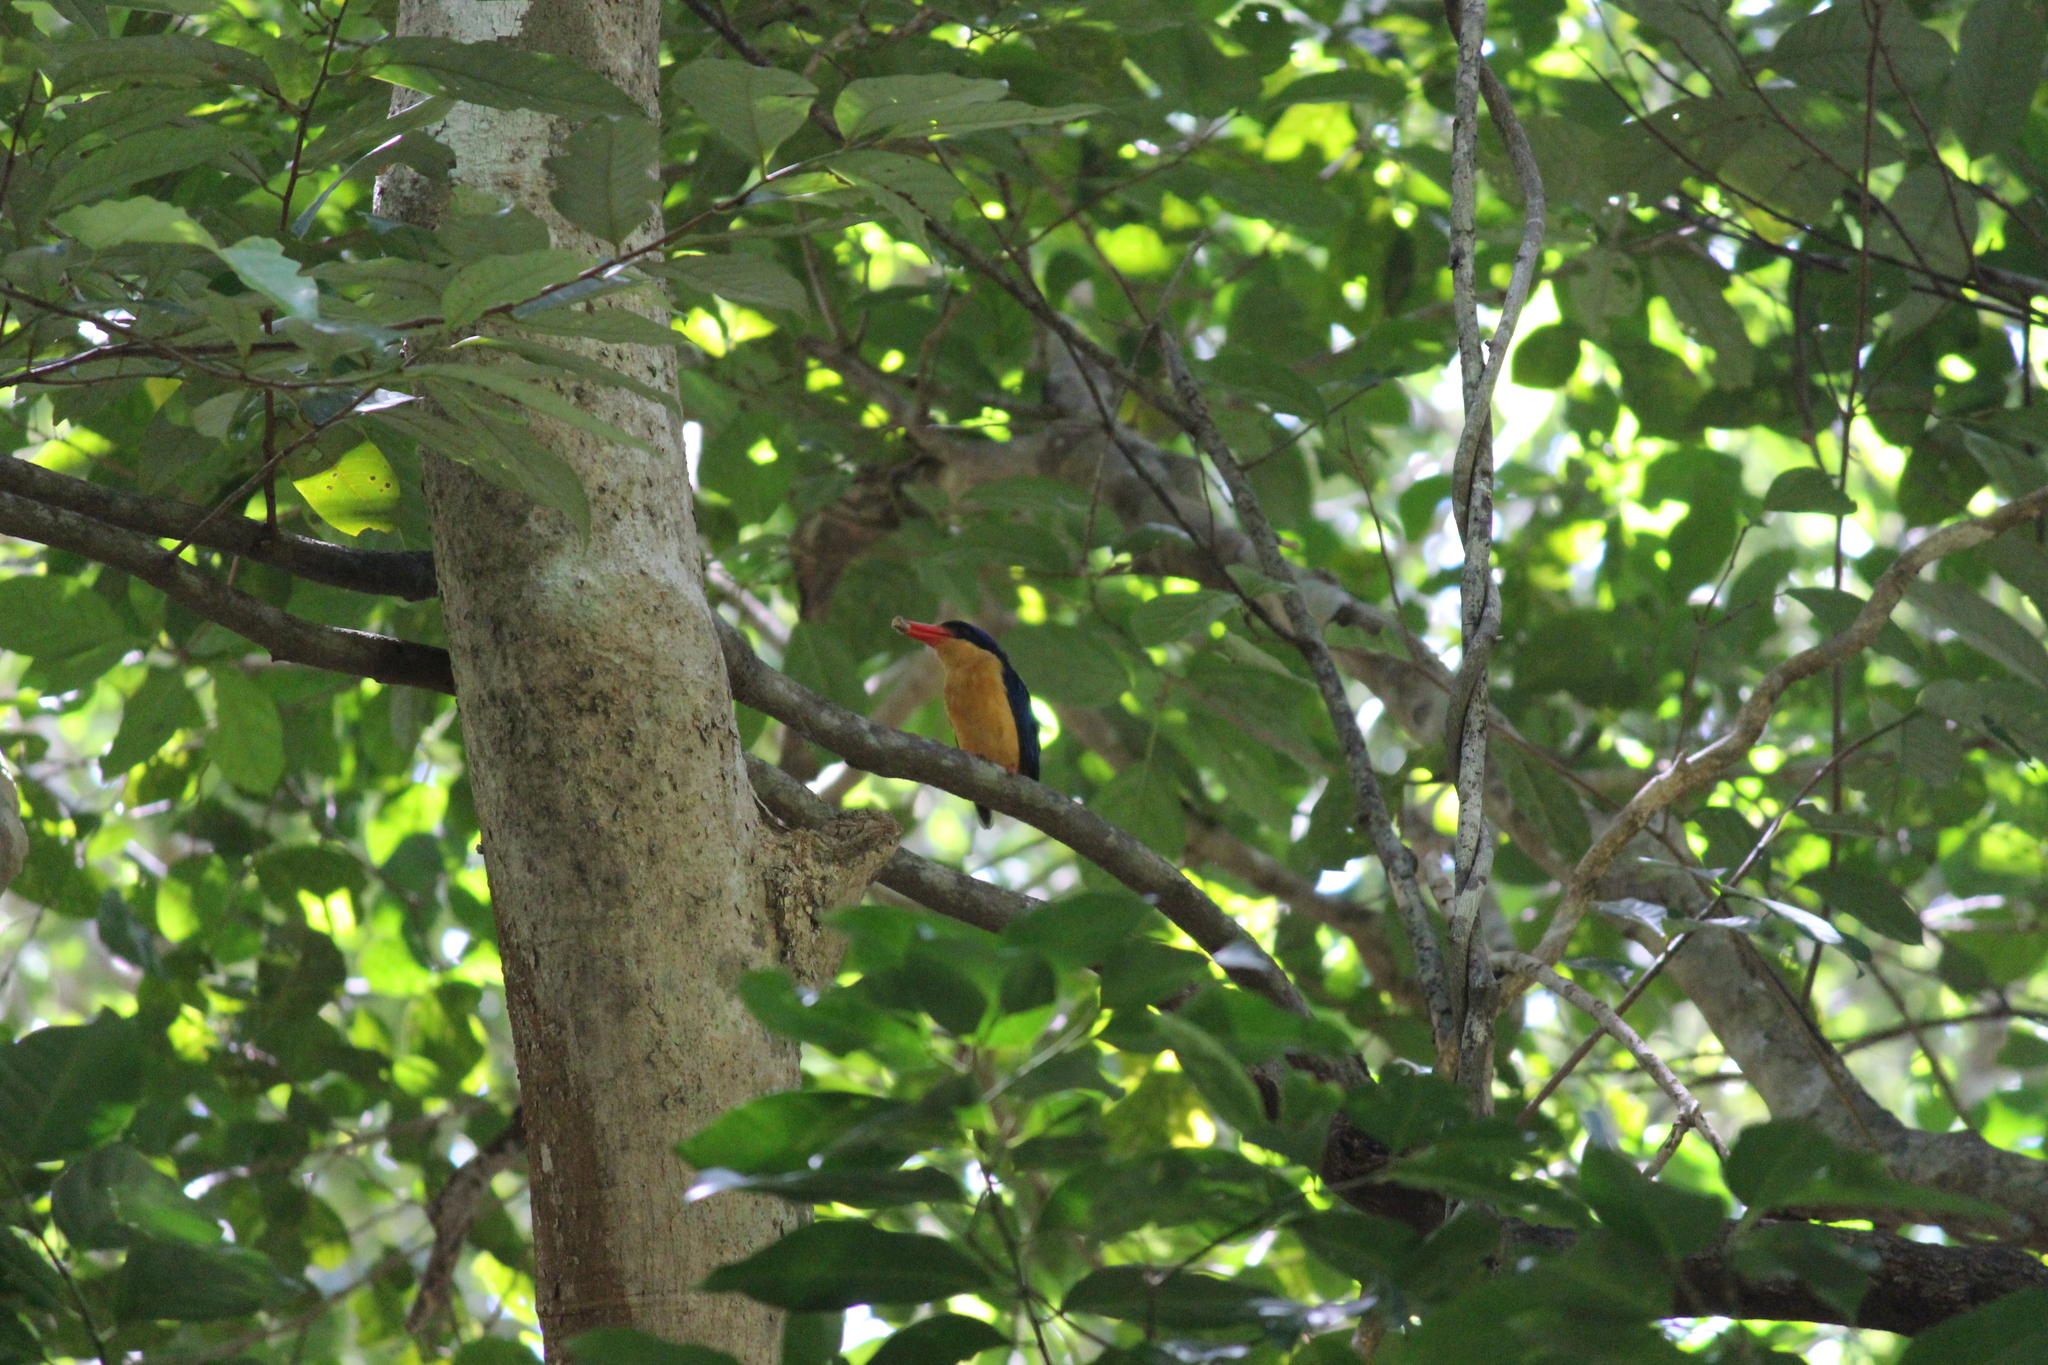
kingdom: Animalia
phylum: Chordata
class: Aves
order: Coraciiformes
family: Alcedinidae
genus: Tanysiptera
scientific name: Tanysiptera sylvia
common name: Buff-breasted paradise kingfisher
